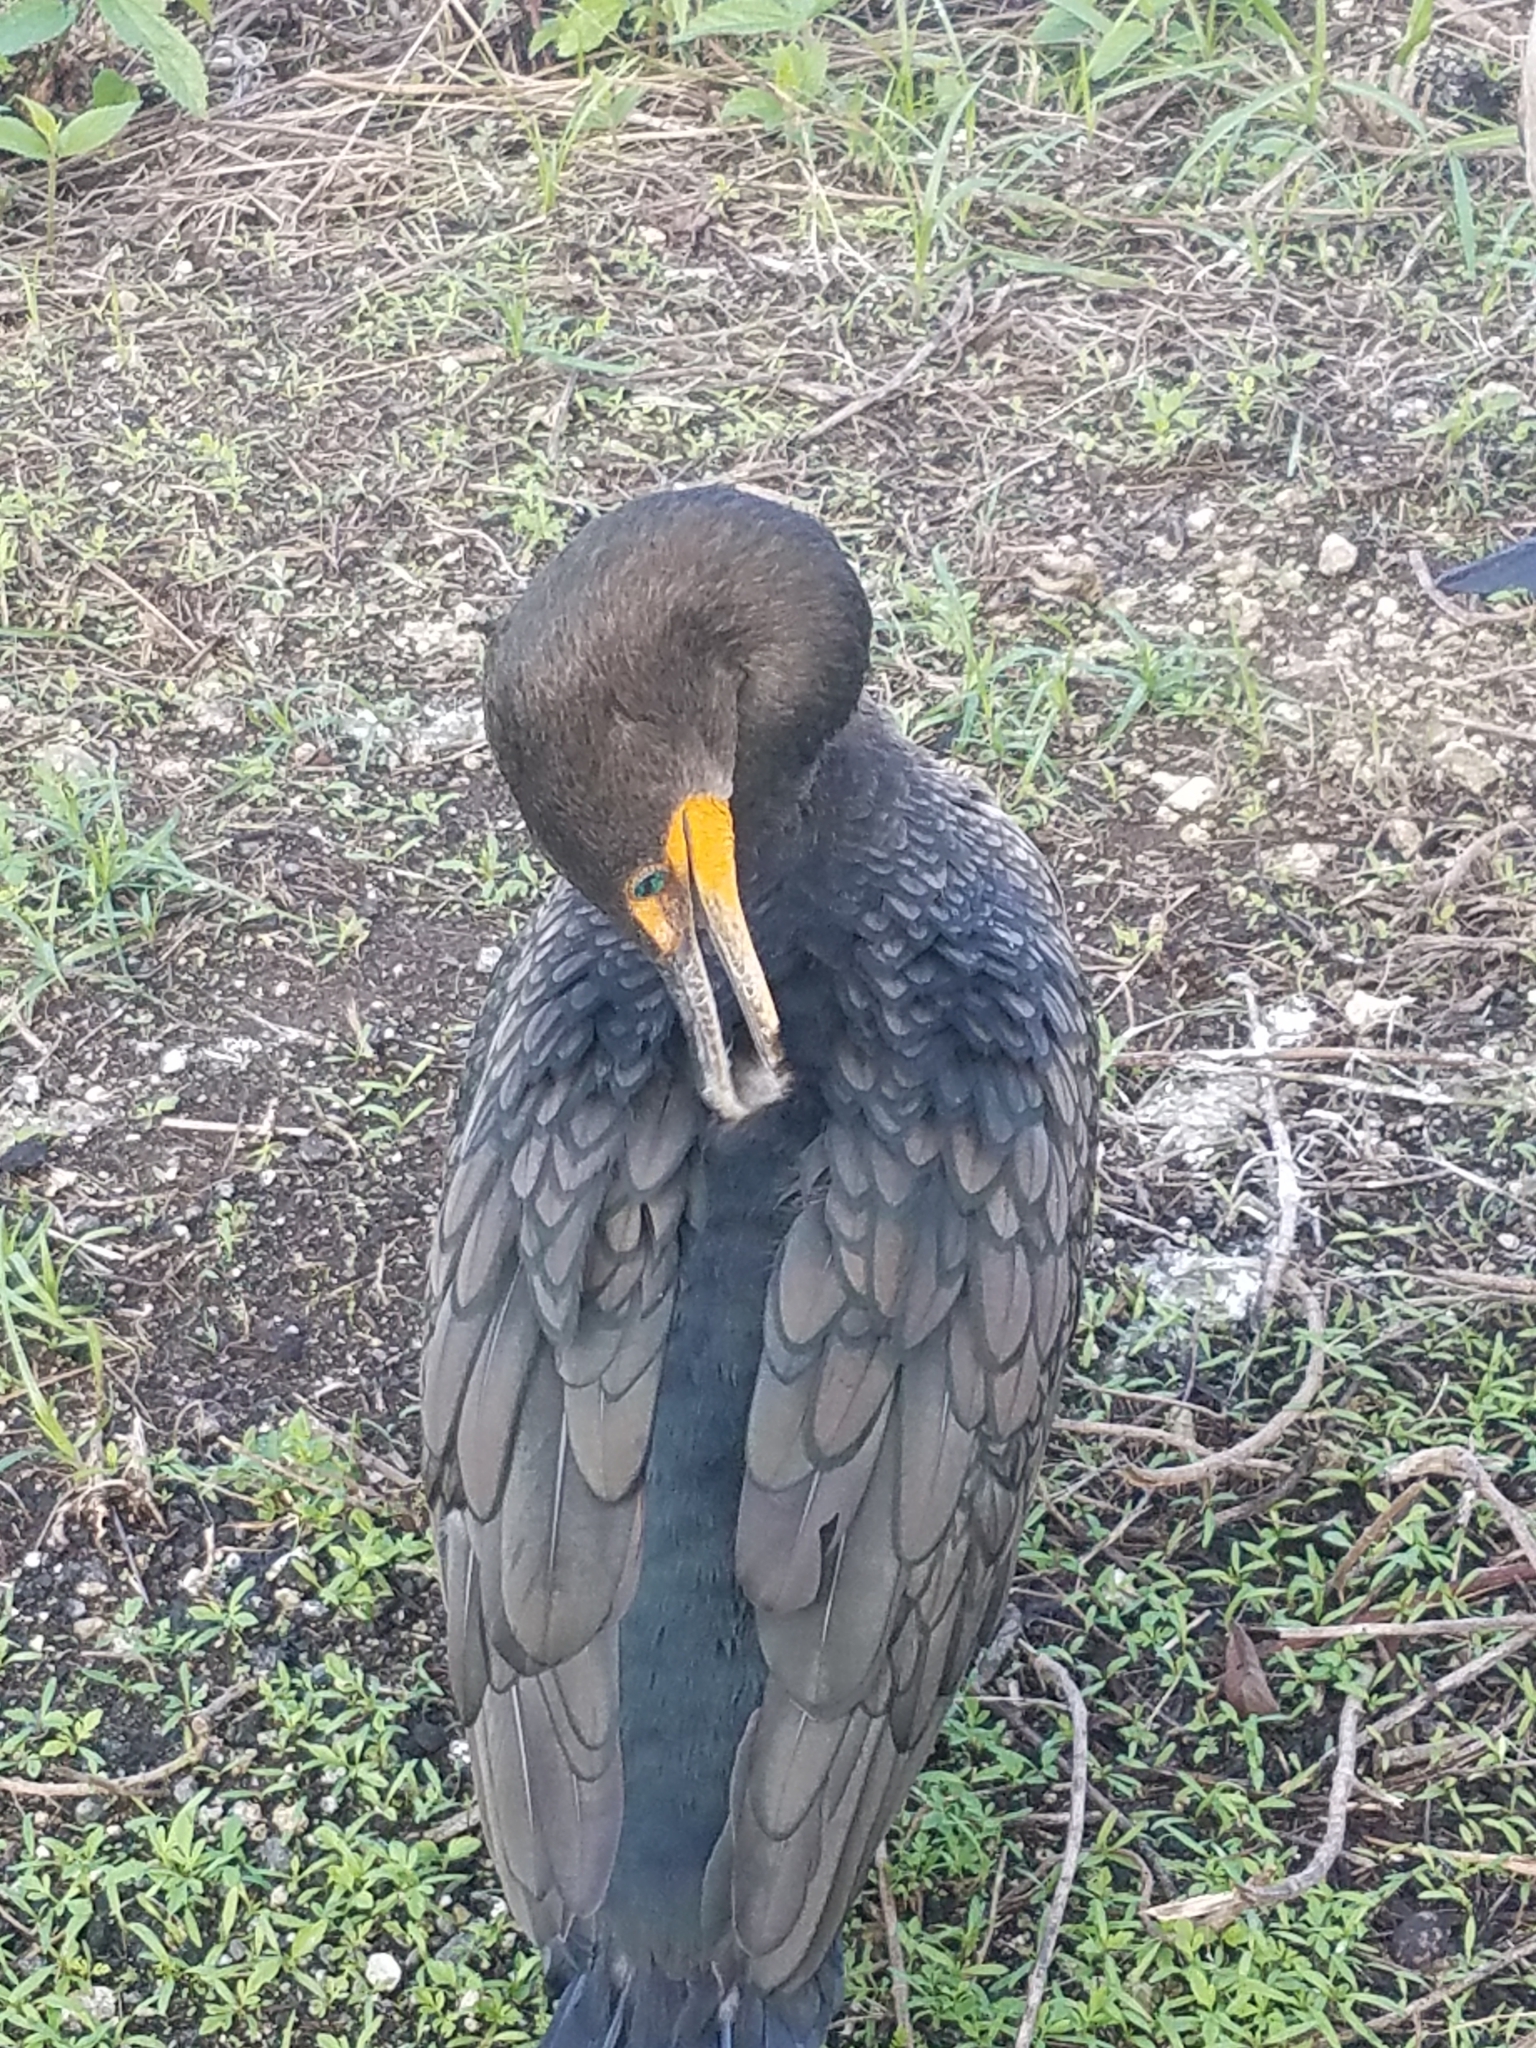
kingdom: Animalia
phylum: Chordata
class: Aves
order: Suliformes
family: Phalacrocoracidae
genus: Phalacrocorax
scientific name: Phalacrocorax auritus
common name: Double-crested cormorant
